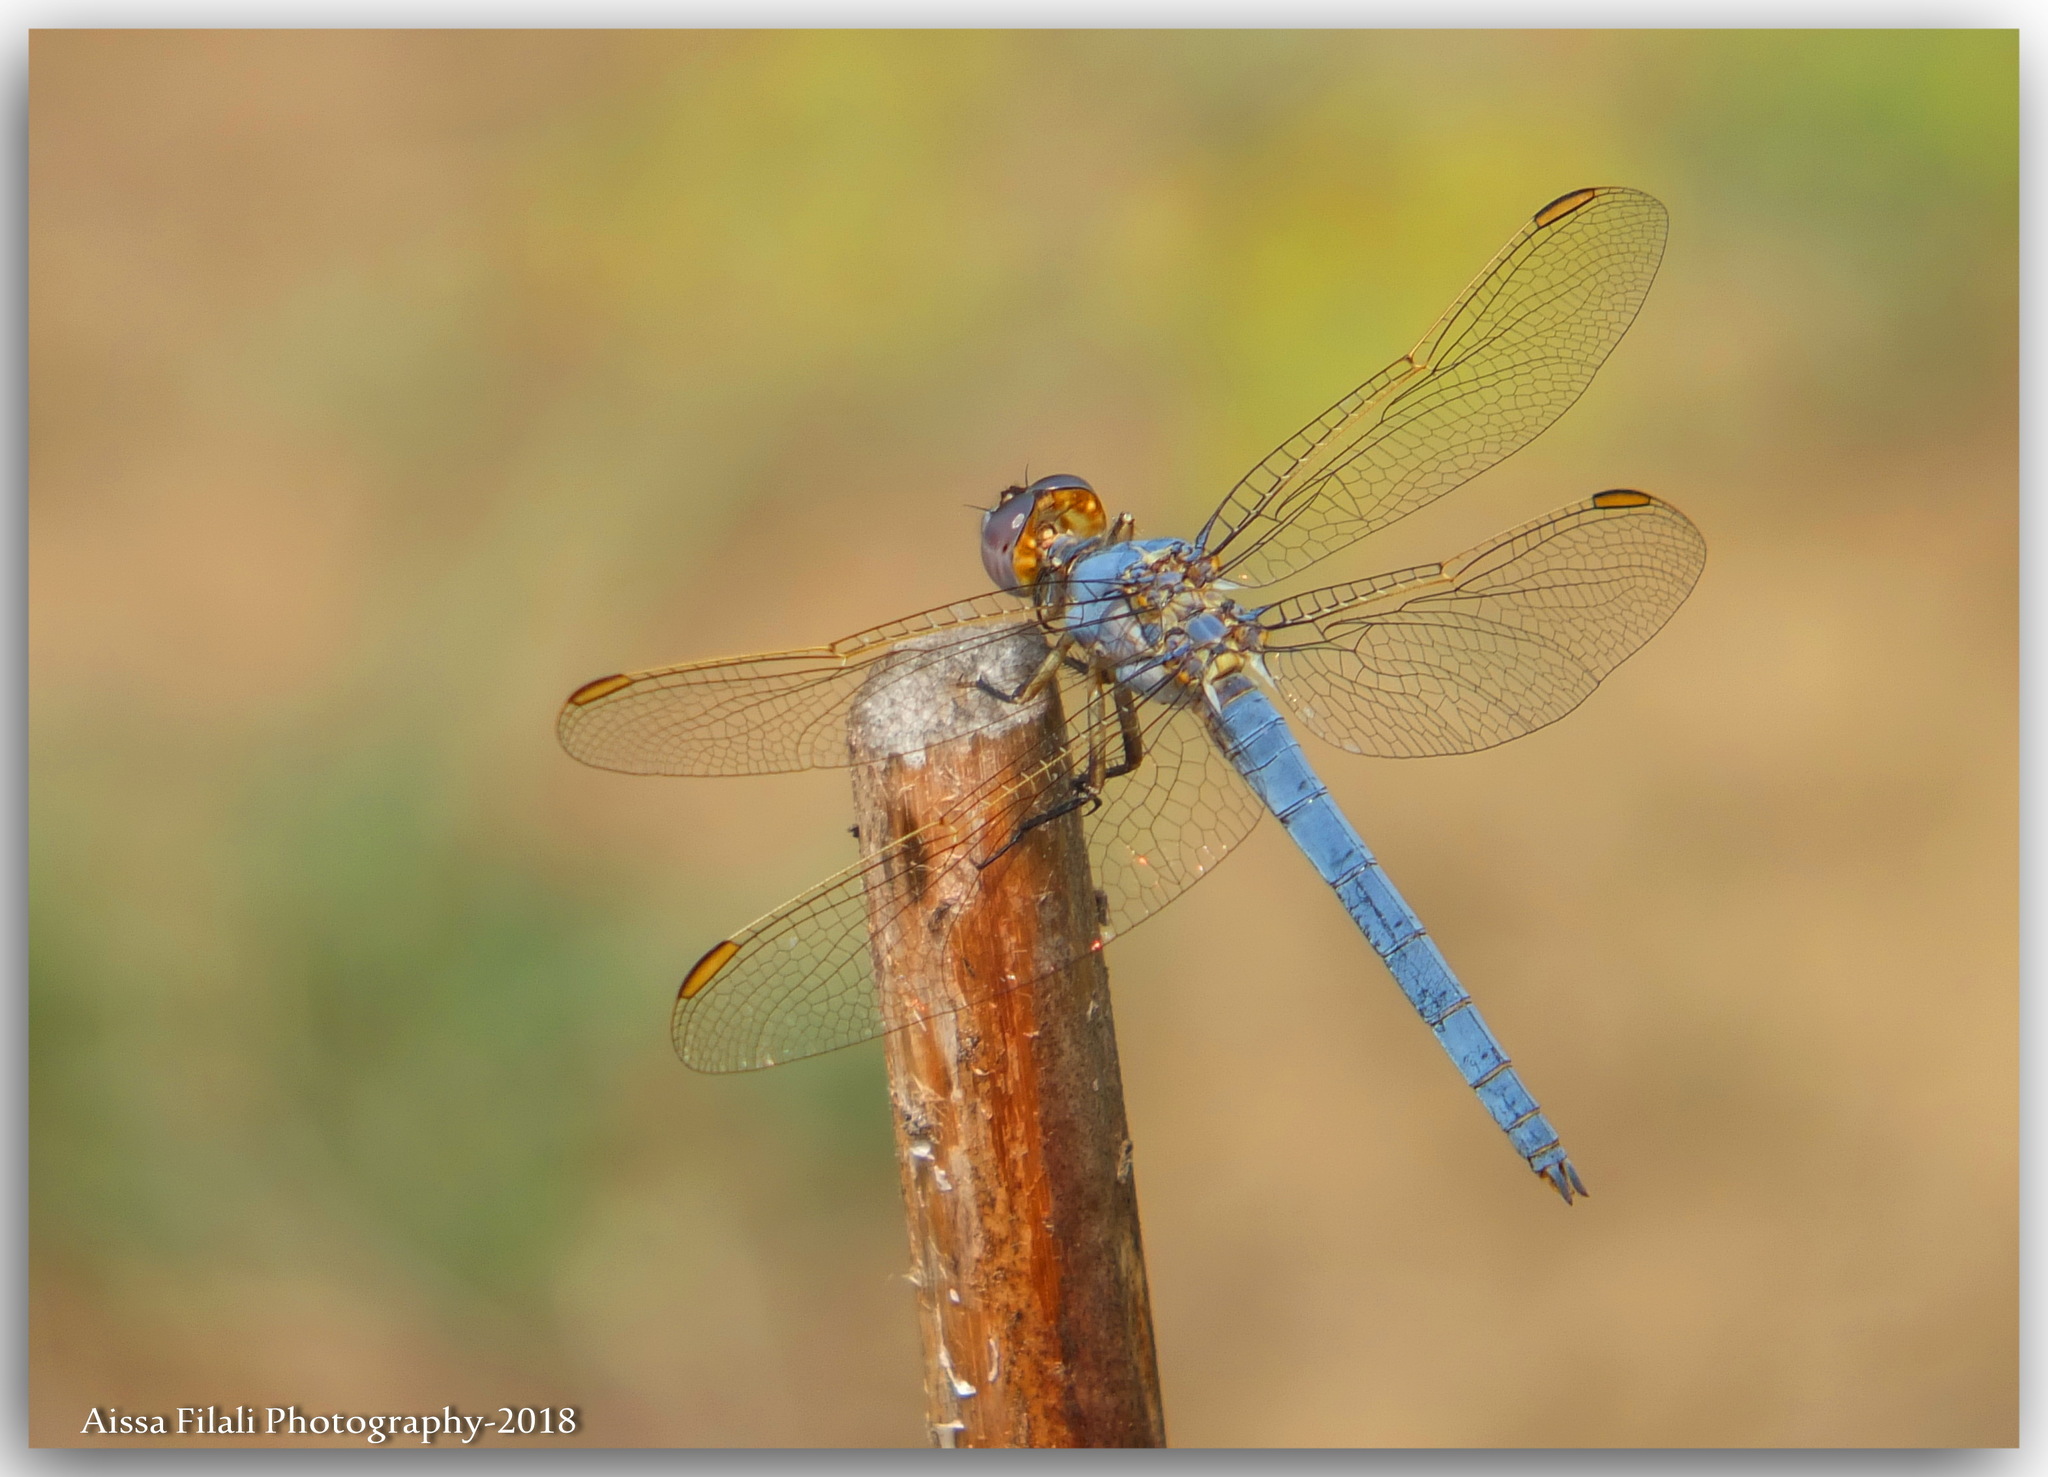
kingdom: Animalia
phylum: Arthropoda
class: Insecta
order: Odonata
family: Libellulidae
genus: Orthetrum
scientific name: Orthetrum nitidinerve
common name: Yellow-veined skimmer
